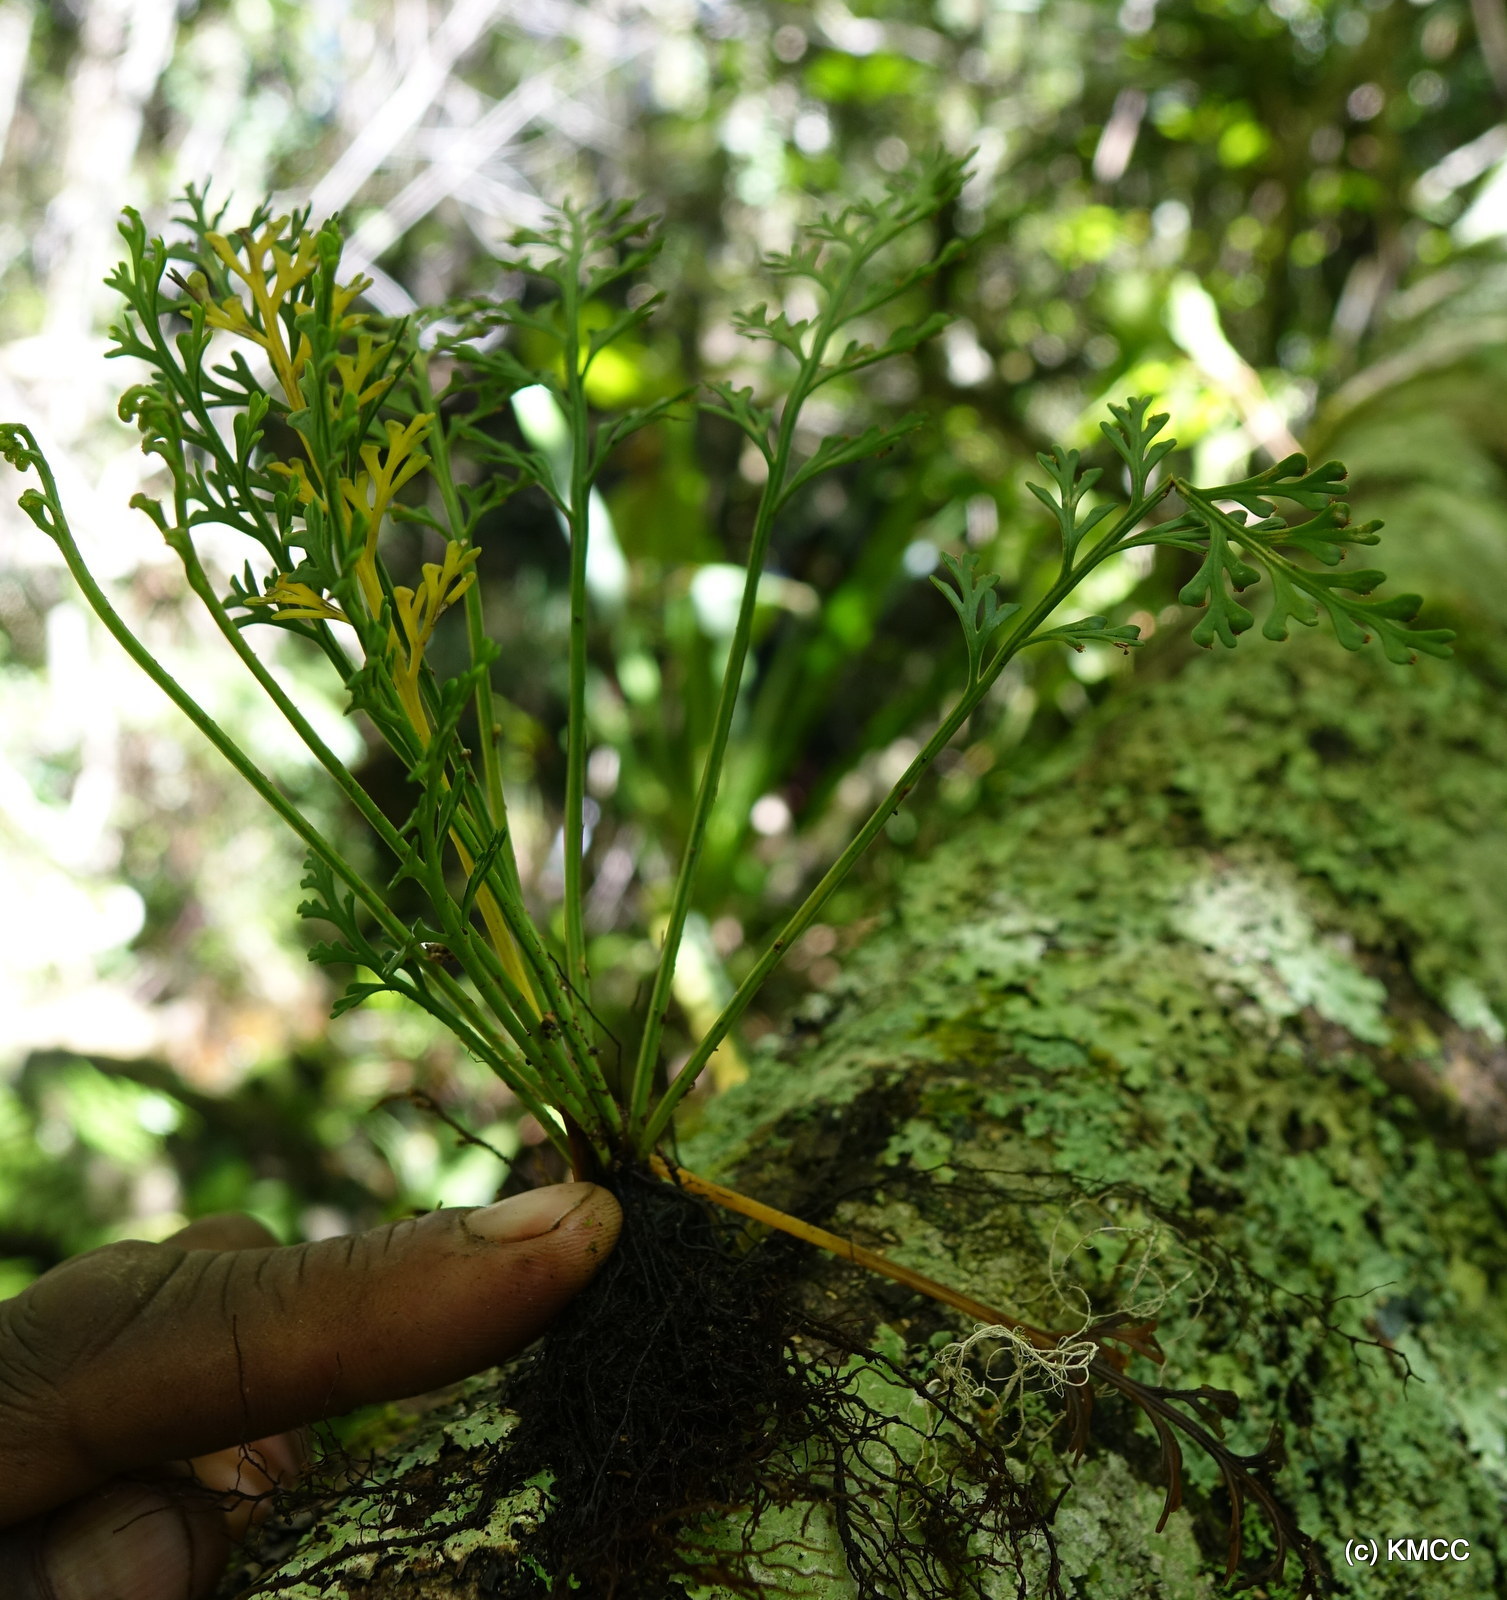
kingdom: Plantae
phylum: Tracheophyta
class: Polypodiopsida
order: Polypodiales
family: Aspleniaceae
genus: Asplenium
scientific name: Asplenium theciferum
